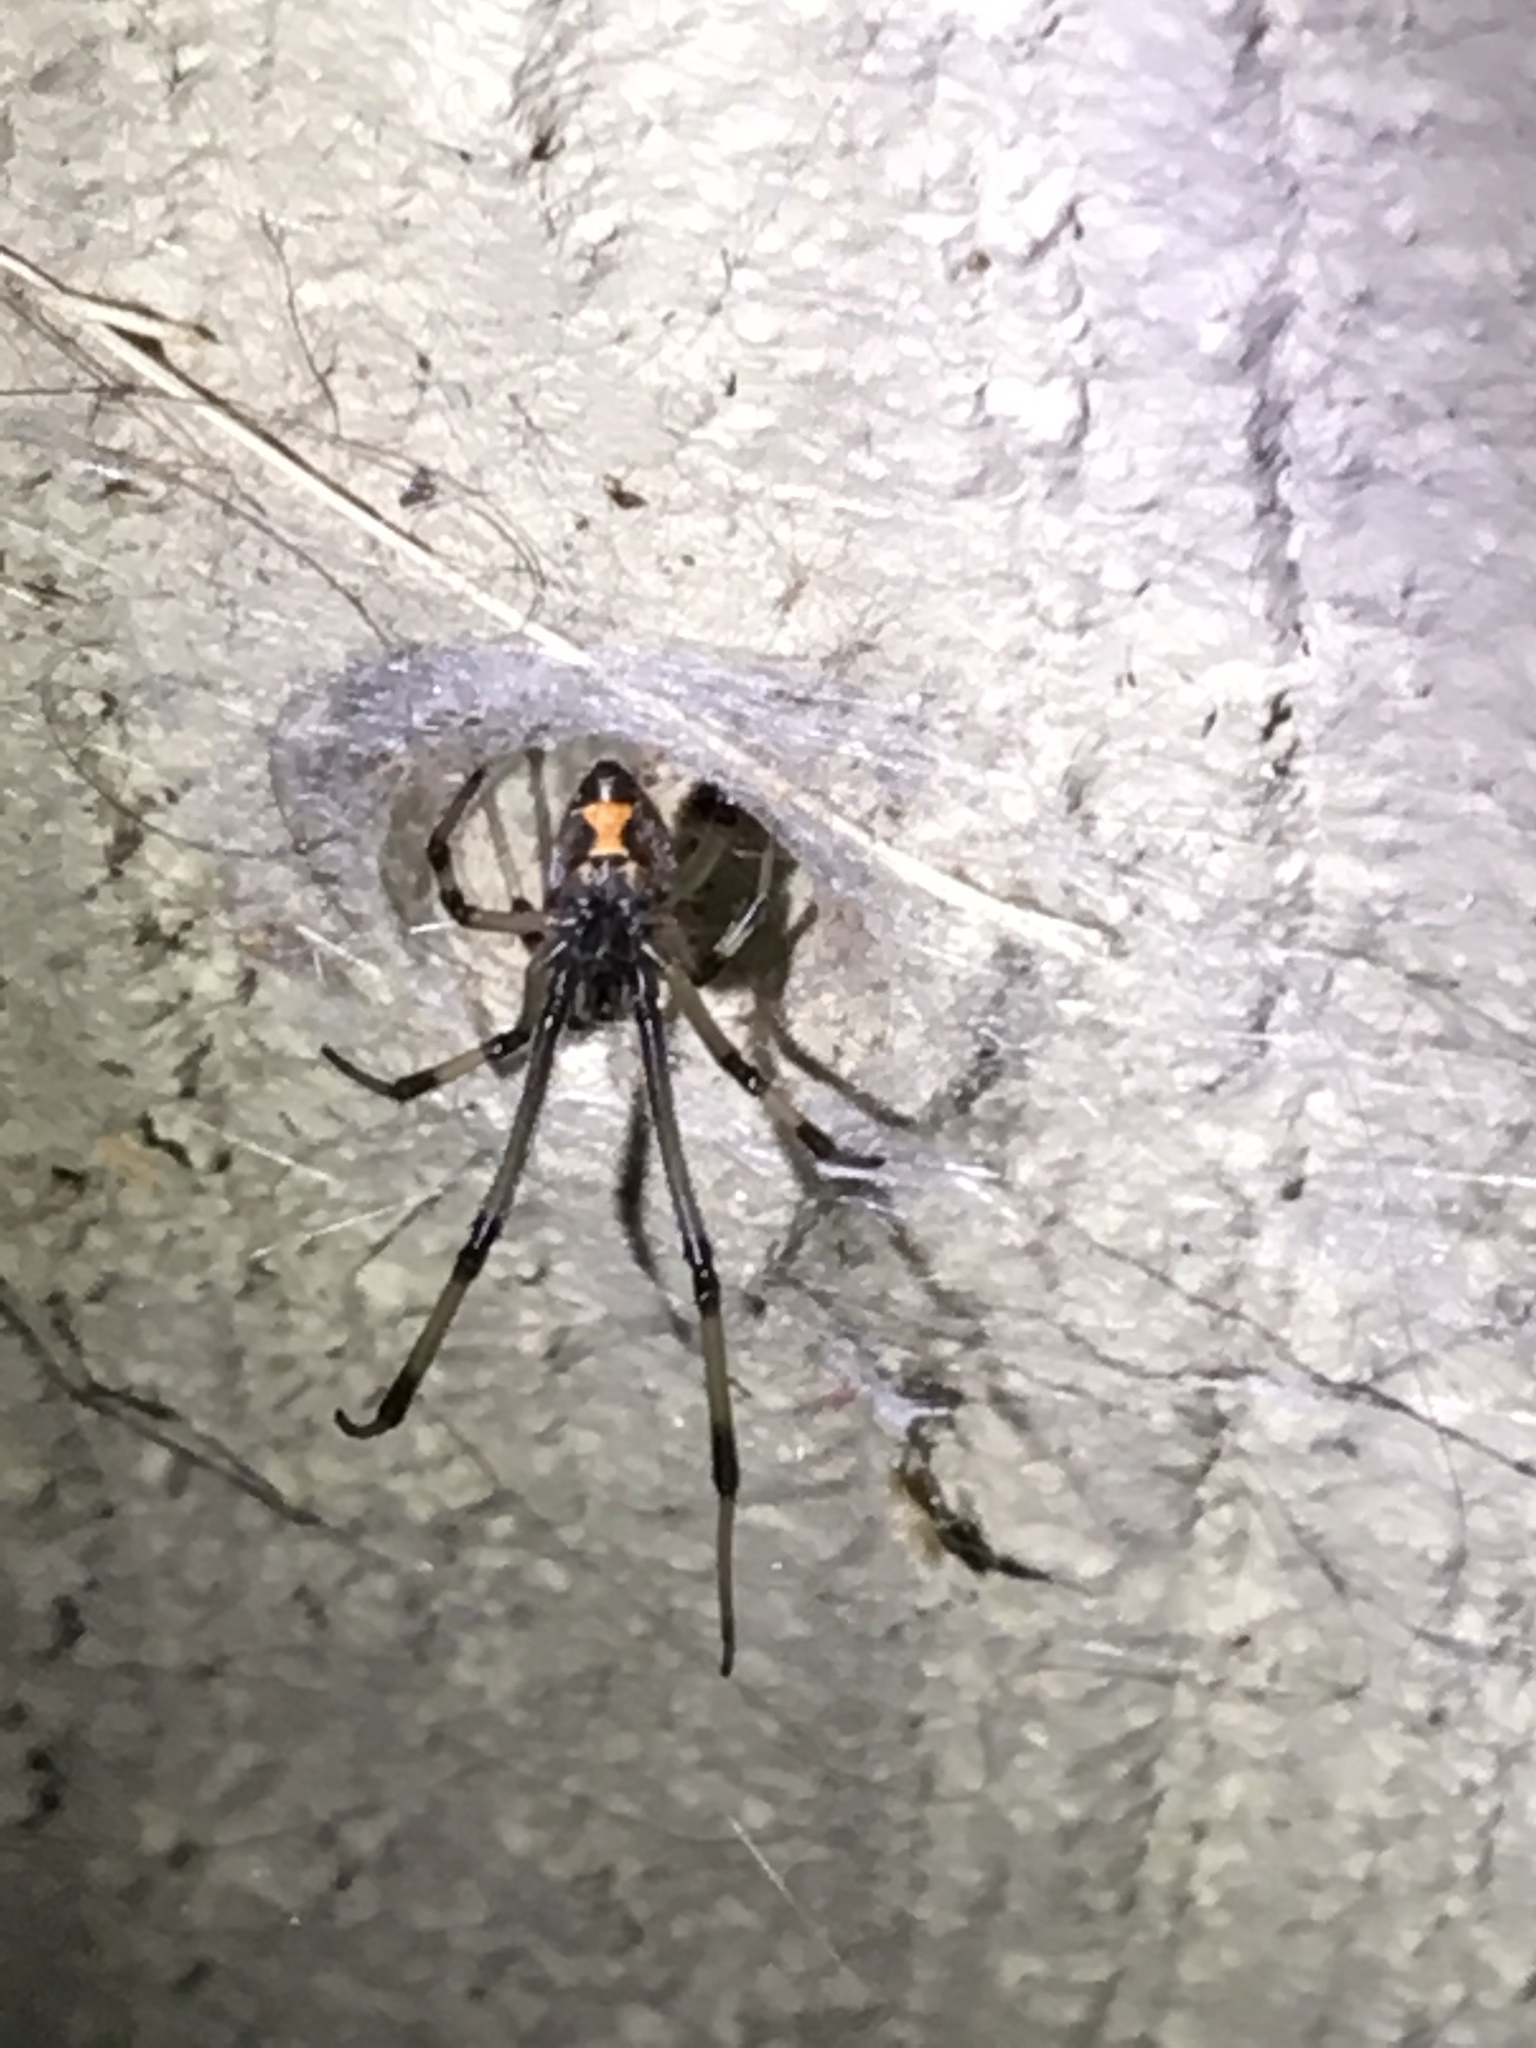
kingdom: Animalia
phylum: Arthropoda
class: Arachnida
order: Araneae
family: Theridiidae
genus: Latrodectus
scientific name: Latrodectus geometricus
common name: Brown widow spider
